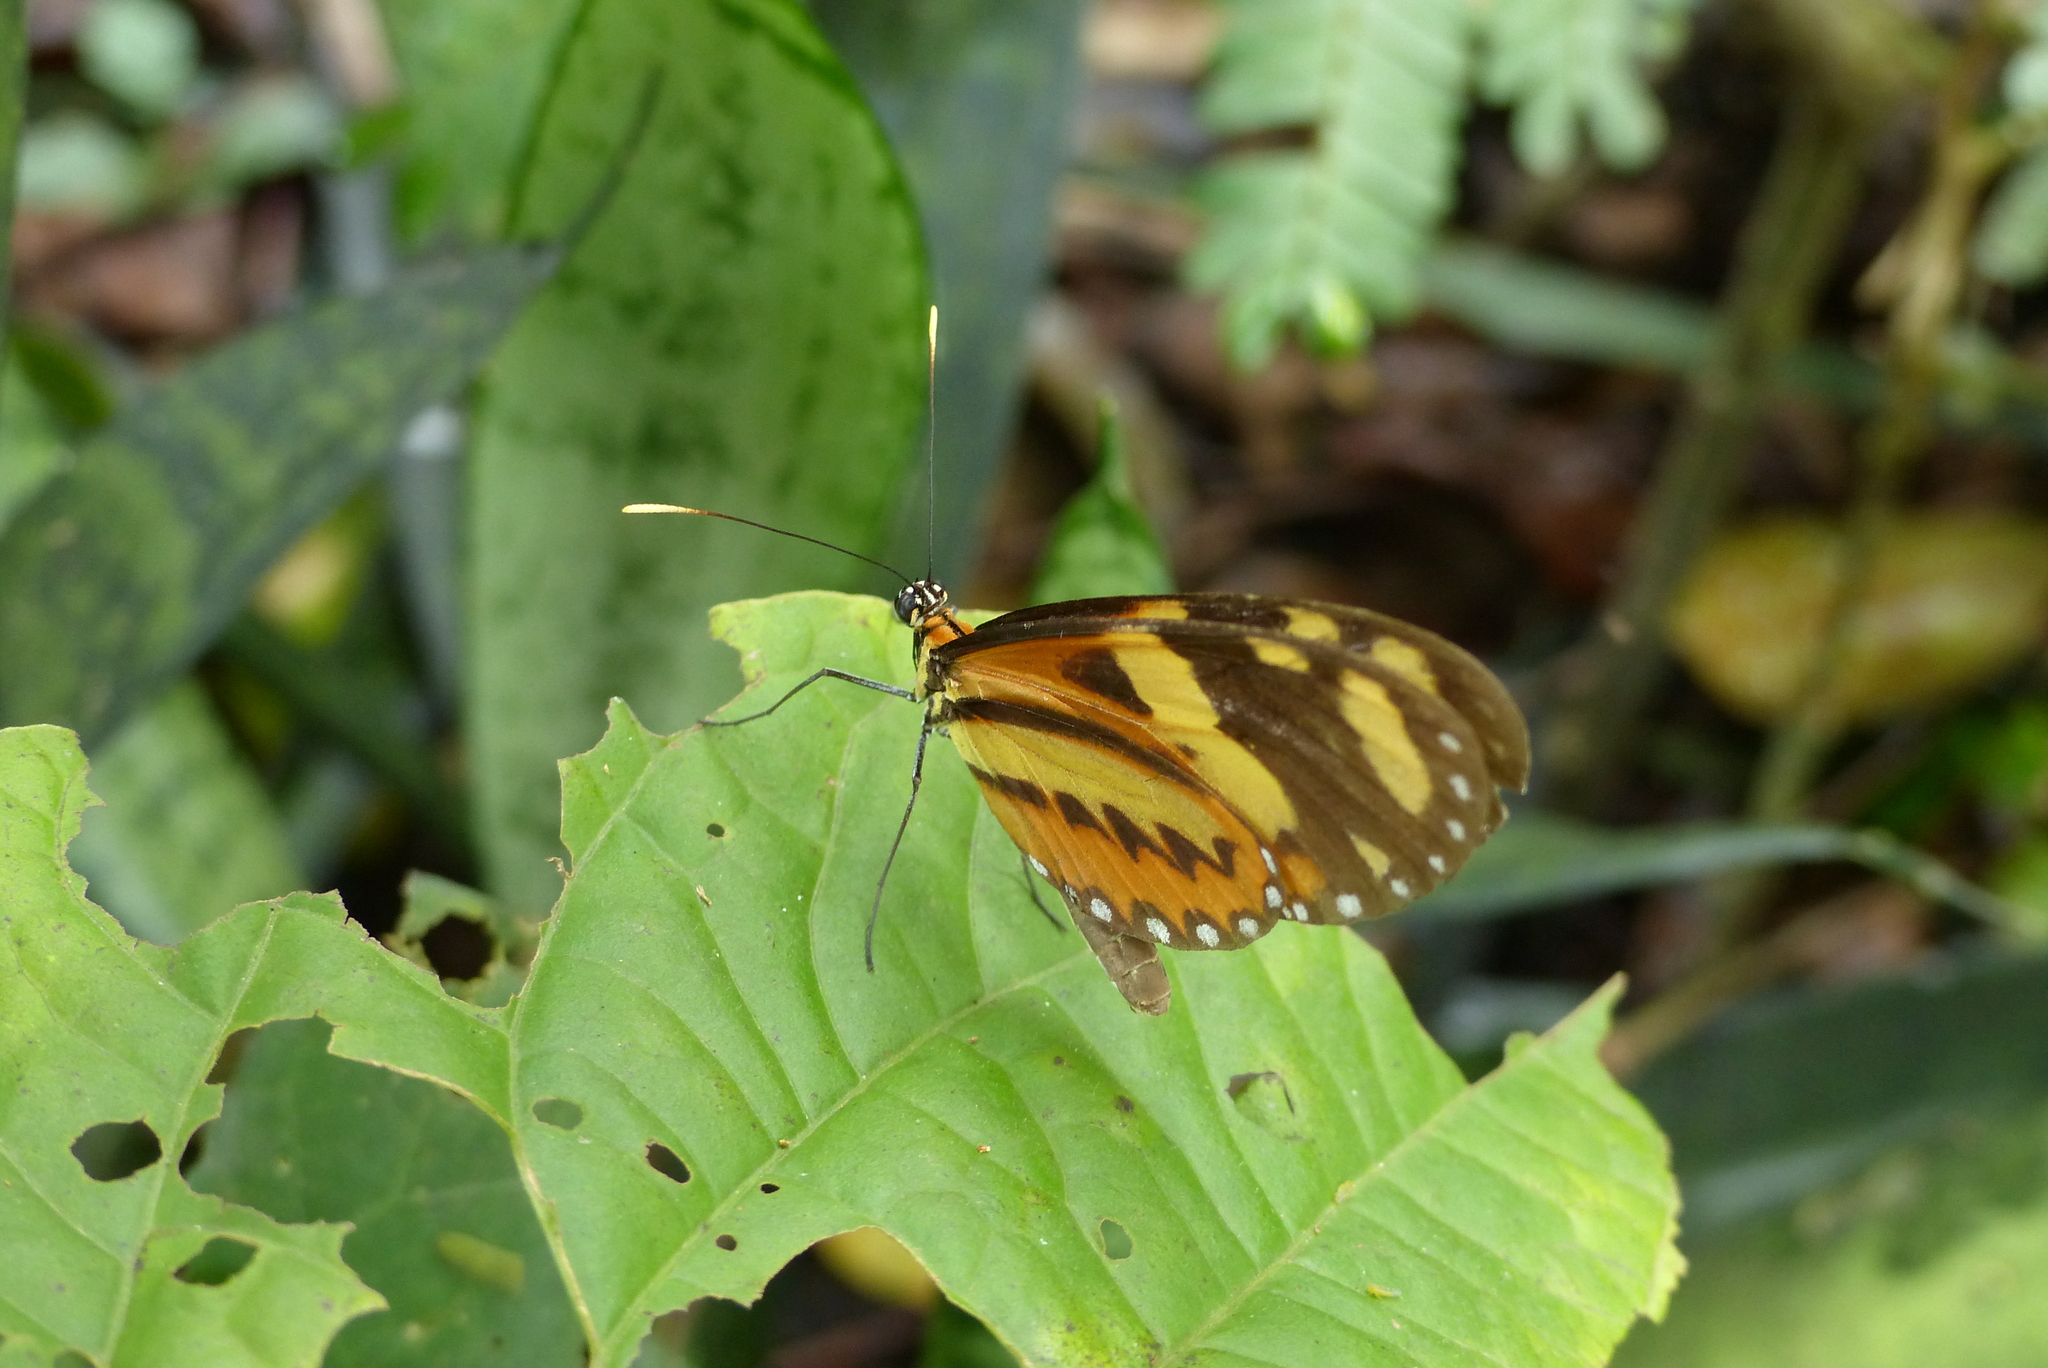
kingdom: Animalia
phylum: Arthropoda
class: Insecta
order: Lepidoptera
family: Nymphalidae
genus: Mechanitis
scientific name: Mechanitis lysimnia
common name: Lysimnia tigerwing
